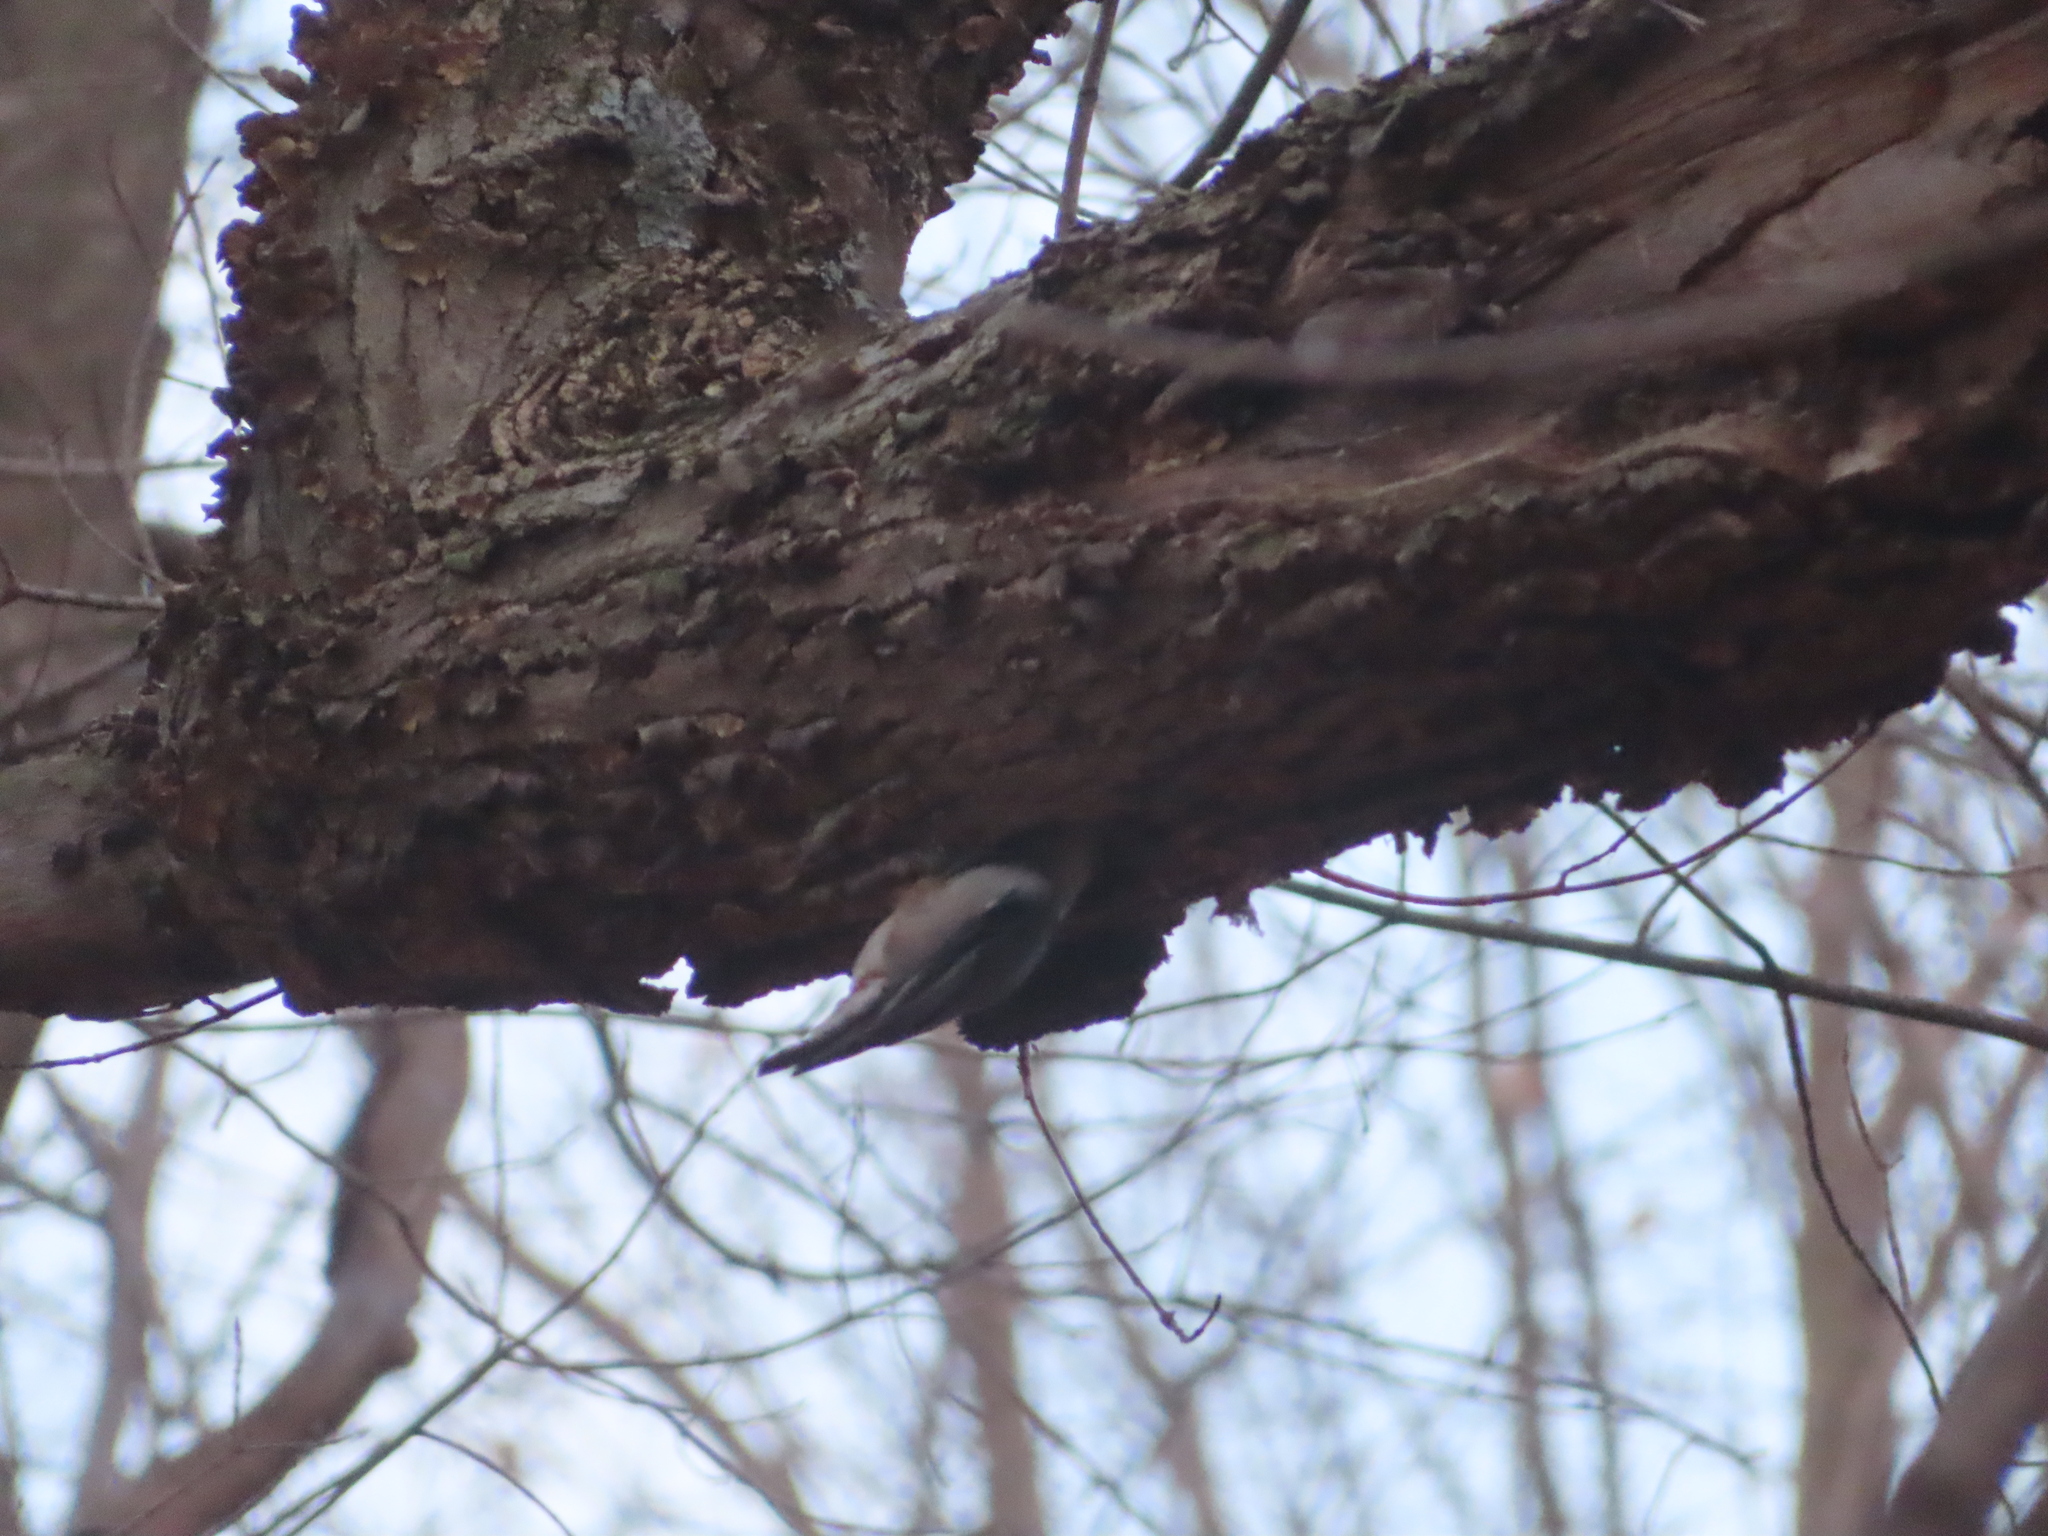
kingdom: Animalia
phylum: Chordata
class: Aves
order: Passeriformes
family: Sittidae
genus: Sitta
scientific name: Sitta carolinensis
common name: White-breasted nuthatch
